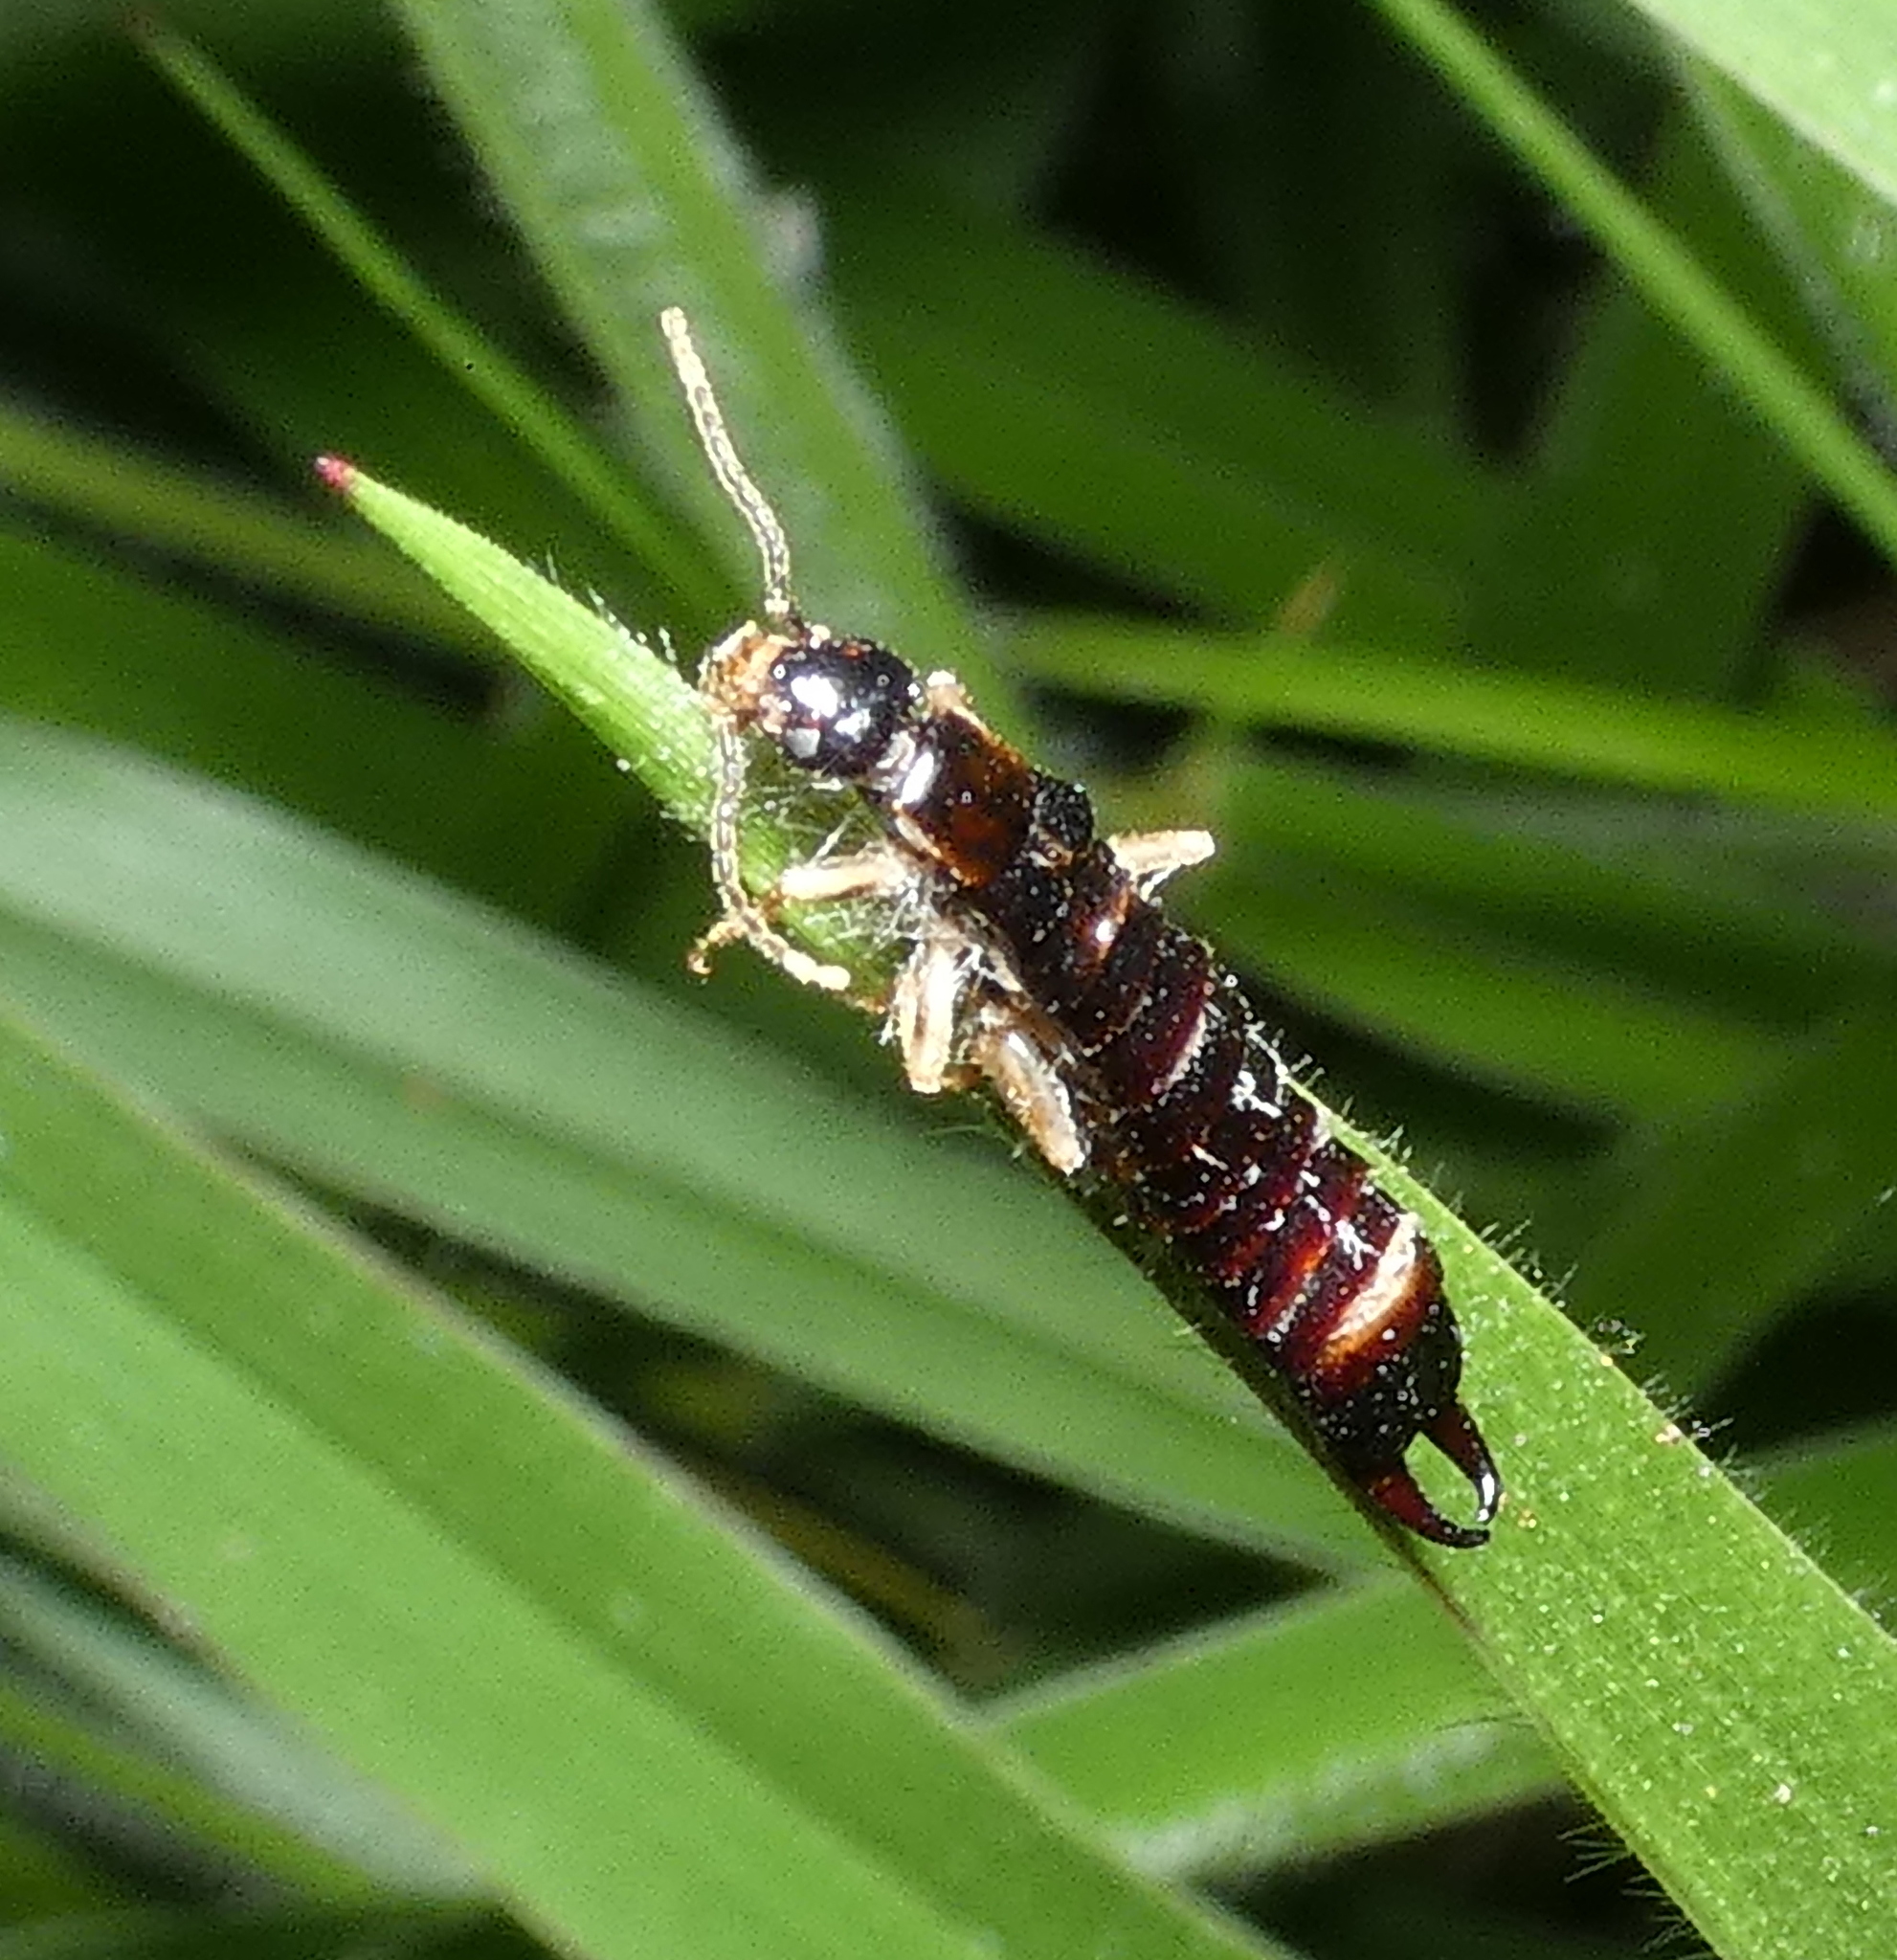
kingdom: Animalia
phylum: Arthropoda
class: Insecta
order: Dermaptera
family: Anisolabididae
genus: Euborellia
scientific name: Euborellia janeirensis
